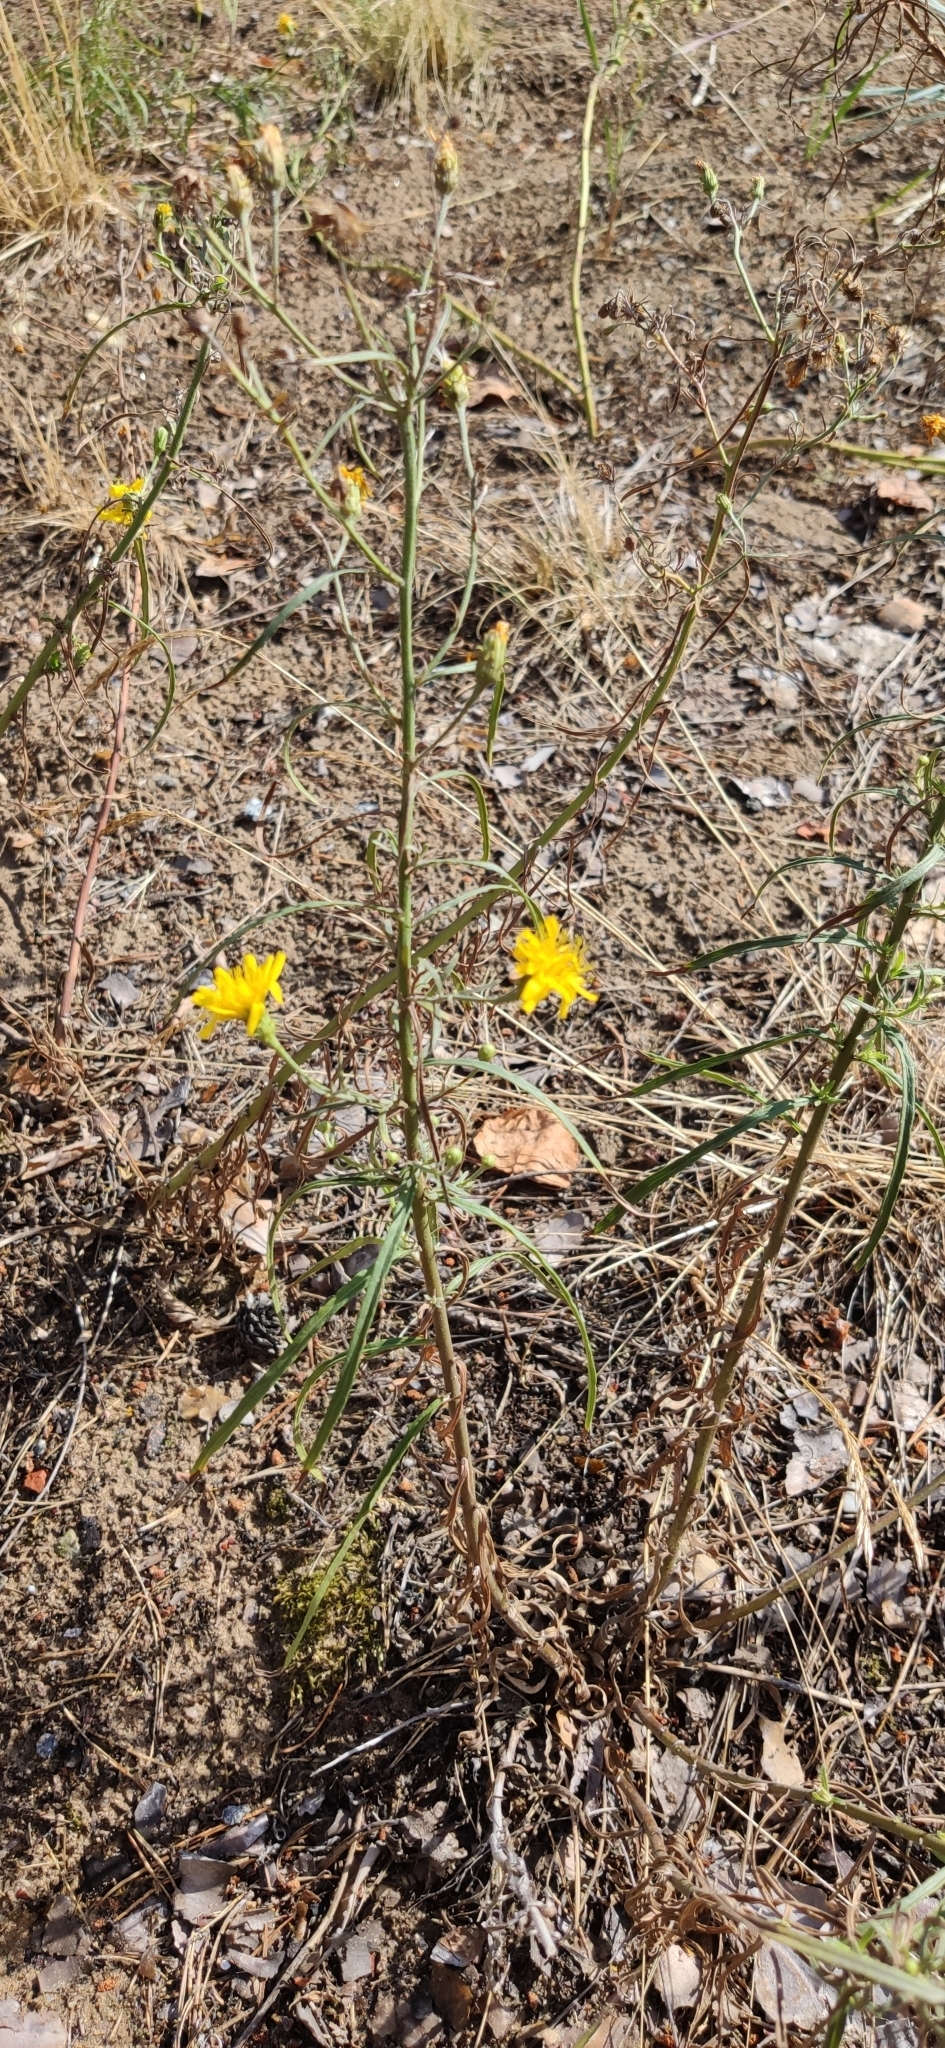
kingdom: Plantae
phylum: Tracheophyta
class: Magnoliopsida
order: Asterales
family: Asteraceae
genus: Hieracium
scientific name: Hieracium umbellatum
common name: Northern hawkweed
